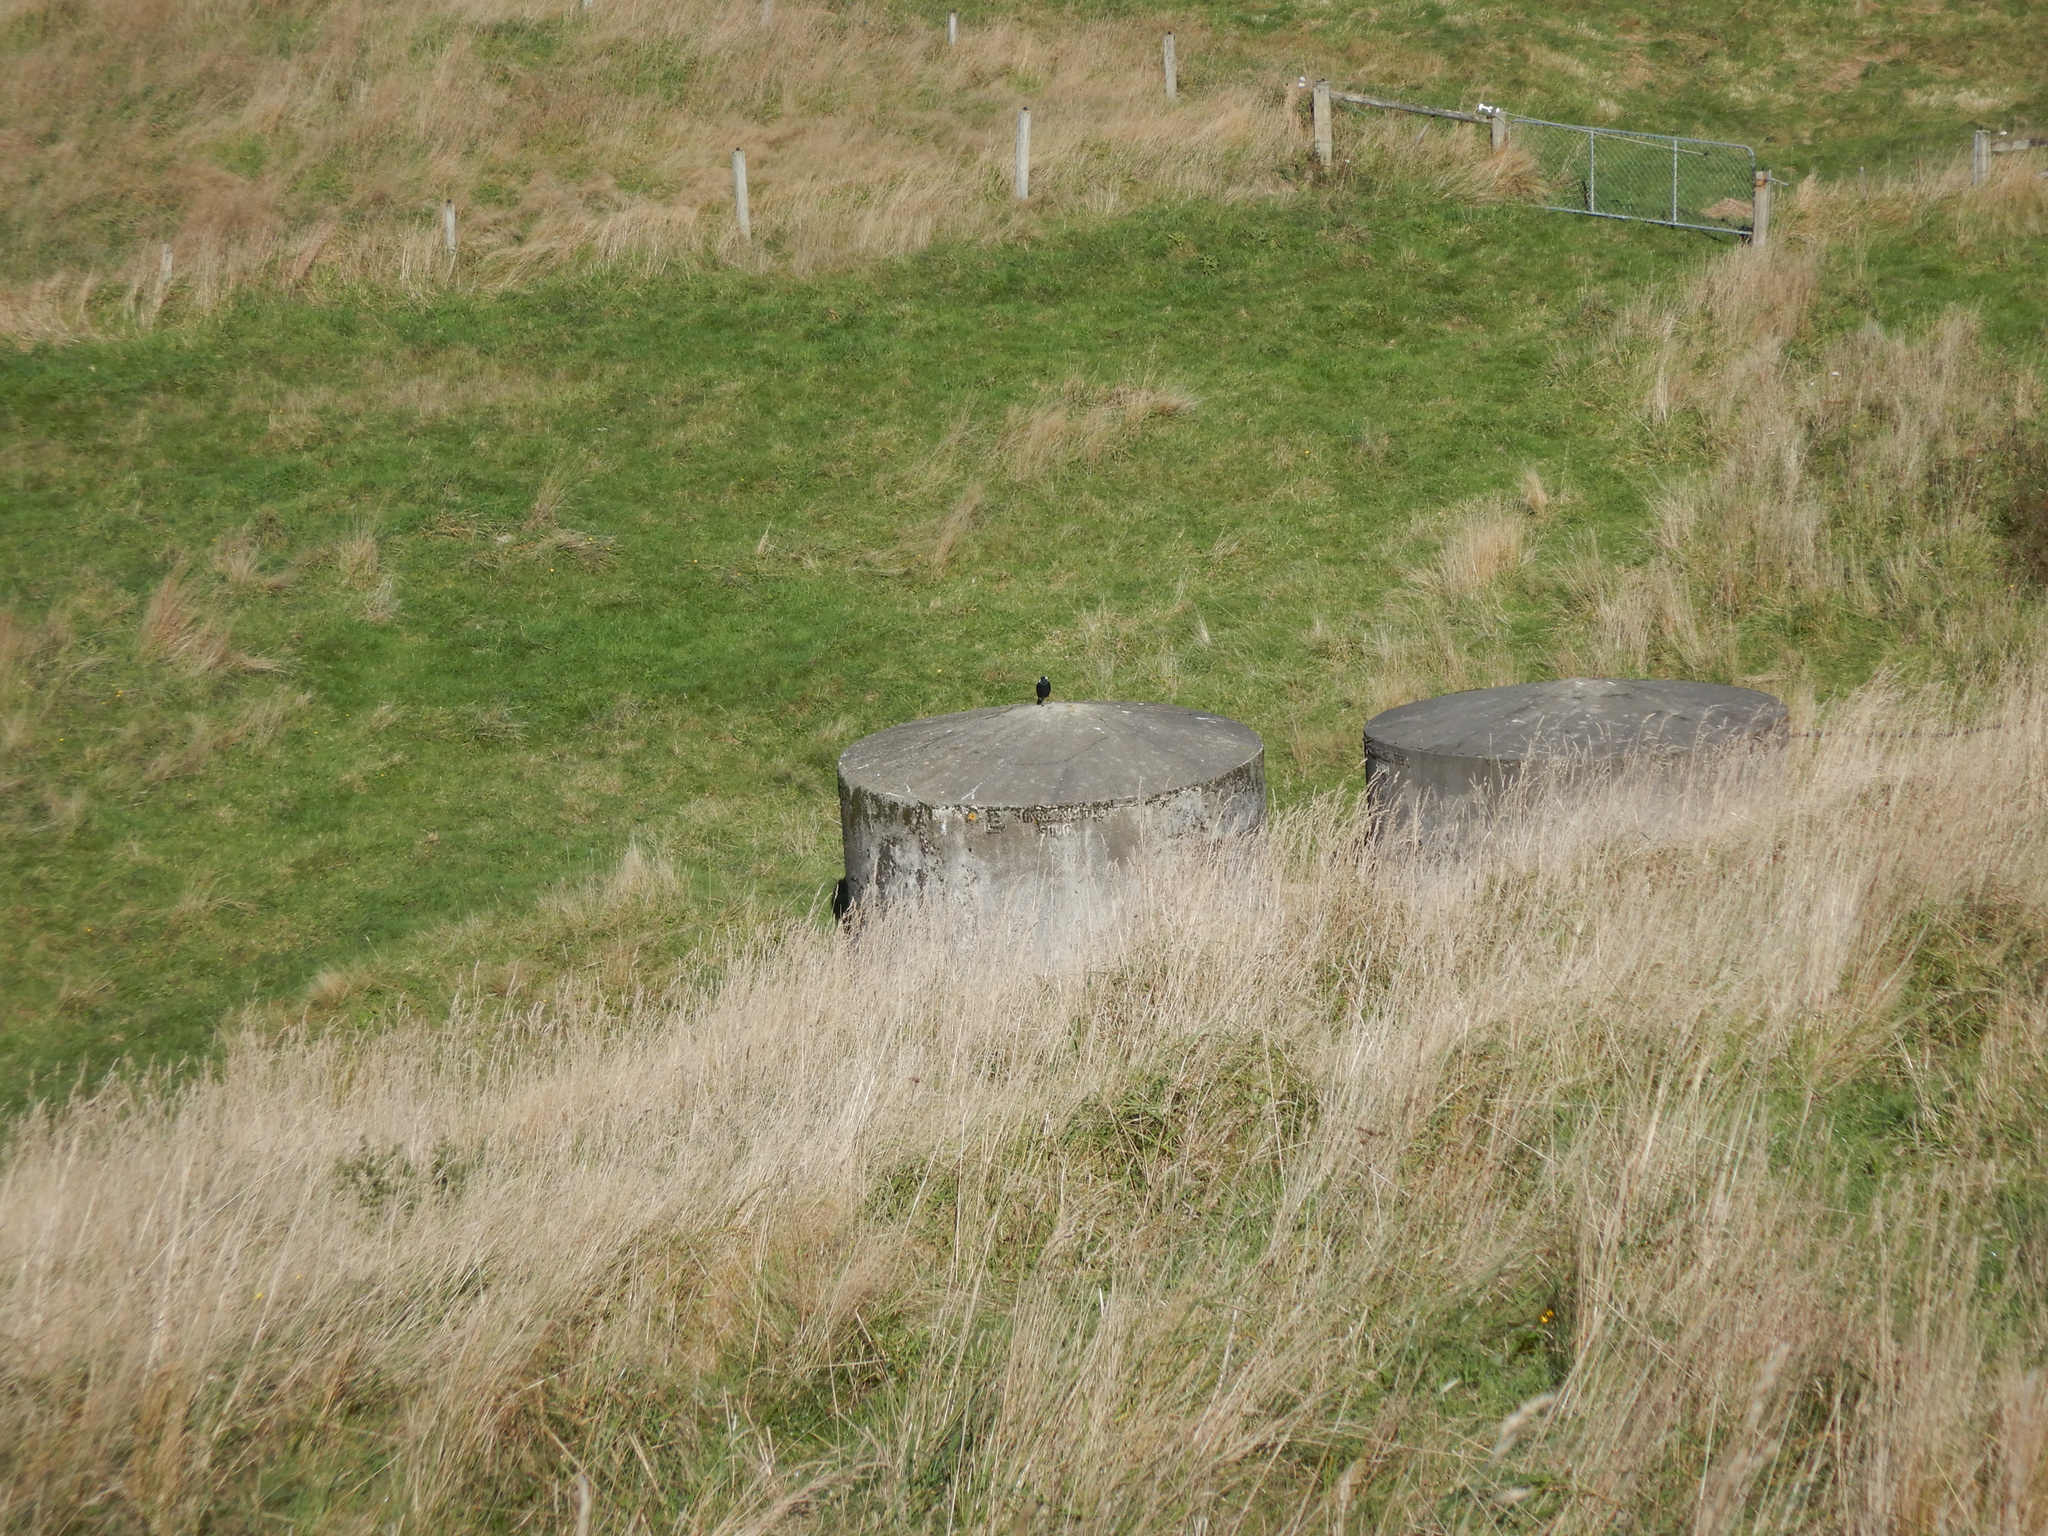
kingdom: Animalia
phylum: Chordata
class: Aves
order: Passeriformes
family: Cracticidae
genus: Gymnorhina
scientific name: Gymnorhina tibicen
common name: Australian magpie
